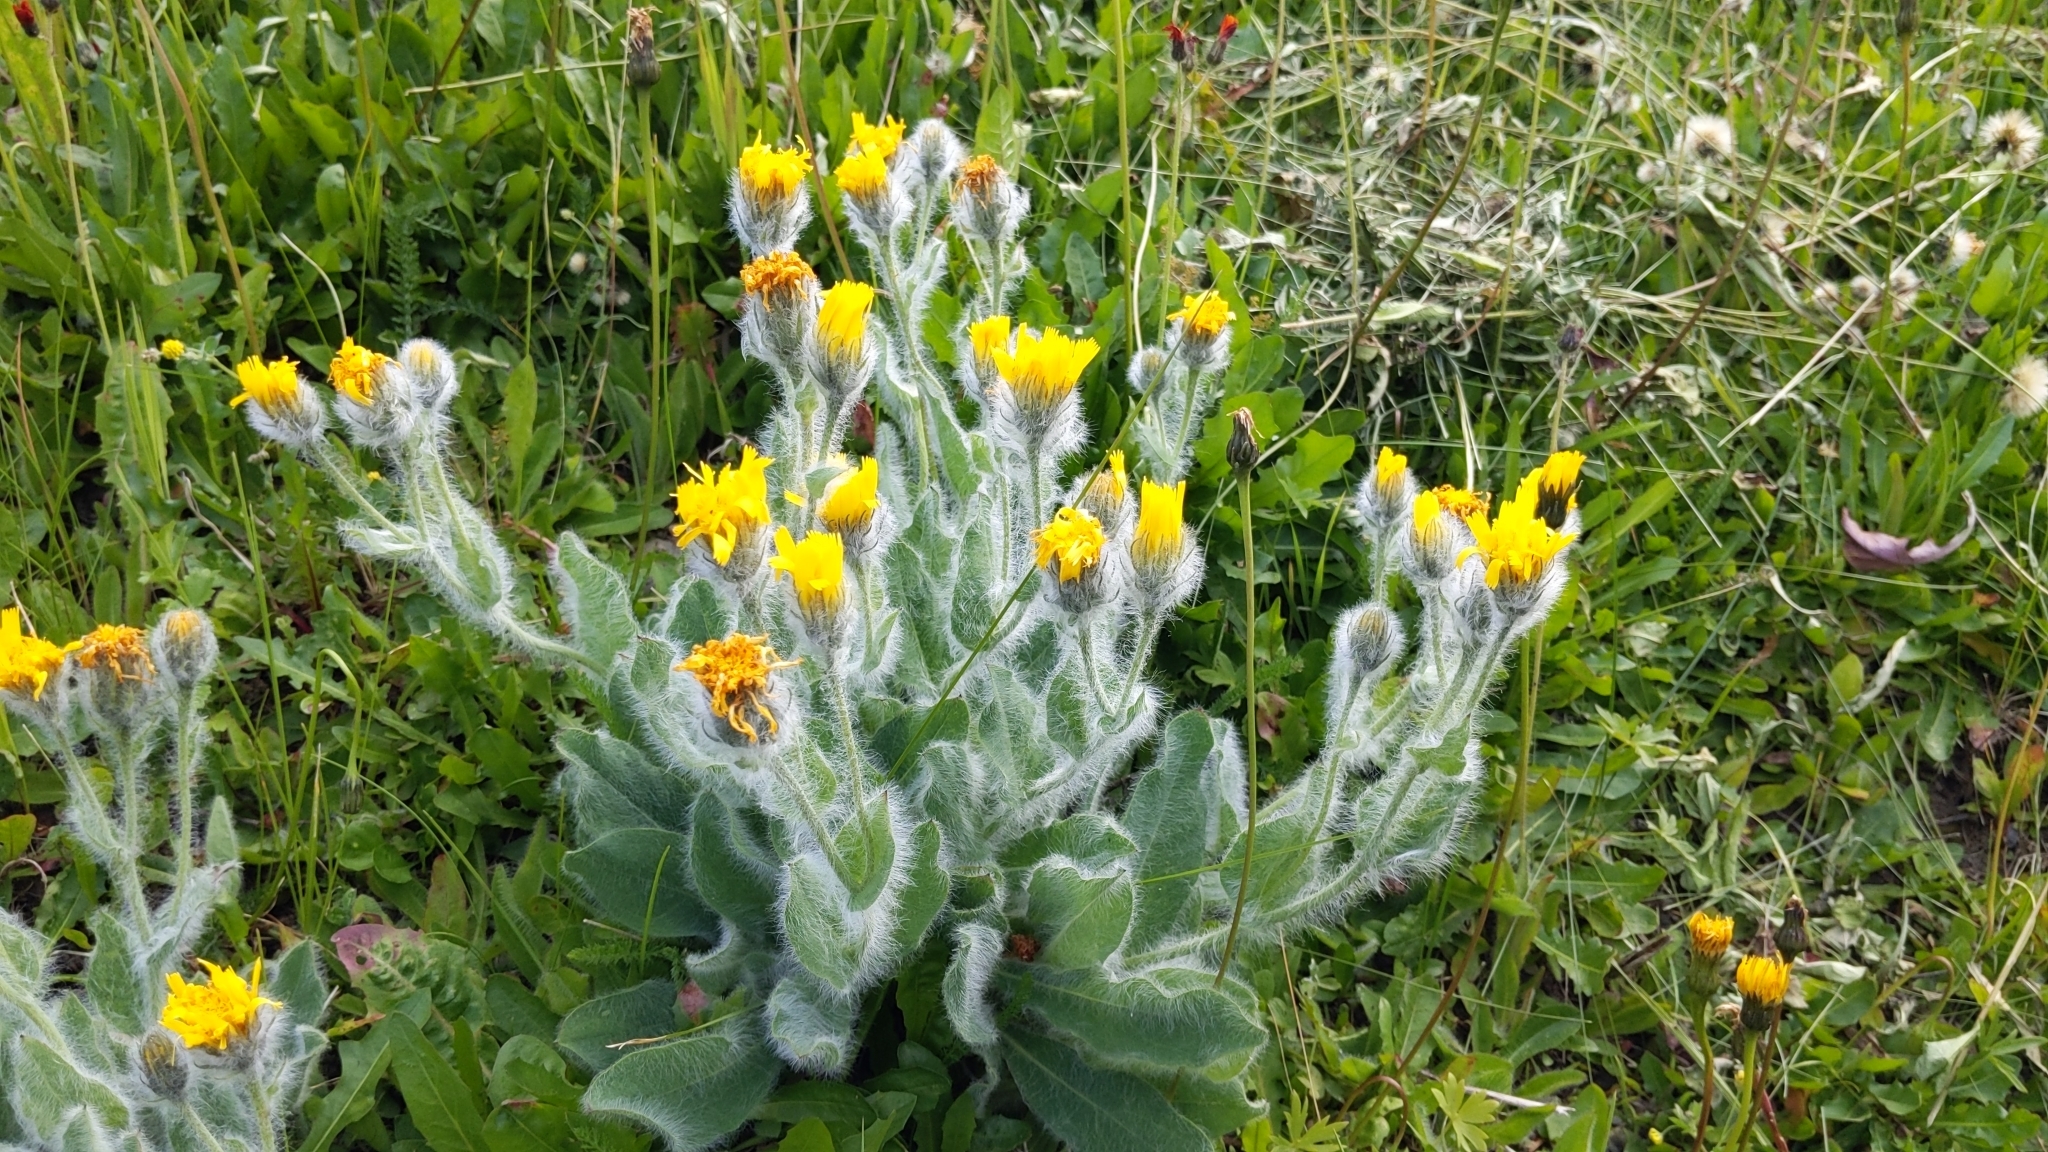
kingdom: Plantae
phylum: Tracheophyta
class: Magnoliopsida
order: Asterales
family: Asteraceae
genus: Hieracium
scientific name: Hieracium villosum
